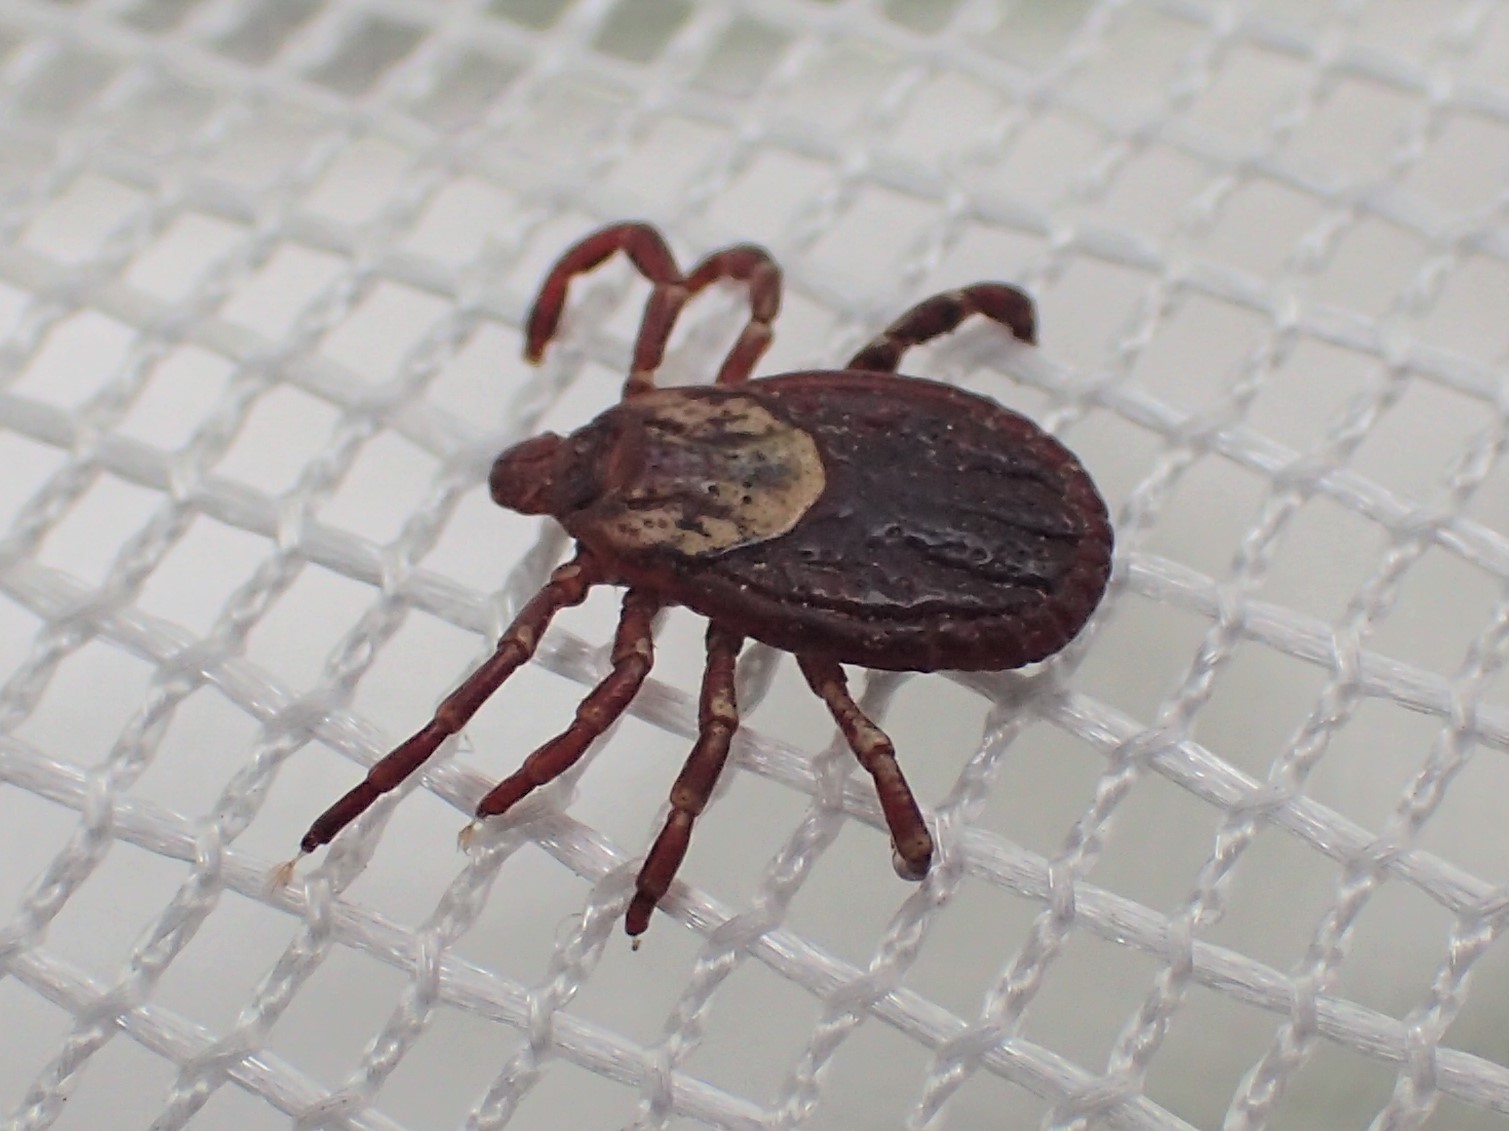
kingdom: Animalia
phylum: Arthropoda
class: Arachnida
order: Ixodida
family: Ixodidae
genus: Dermacentor
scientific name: Dermacentor variabilis
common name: American dog tick
